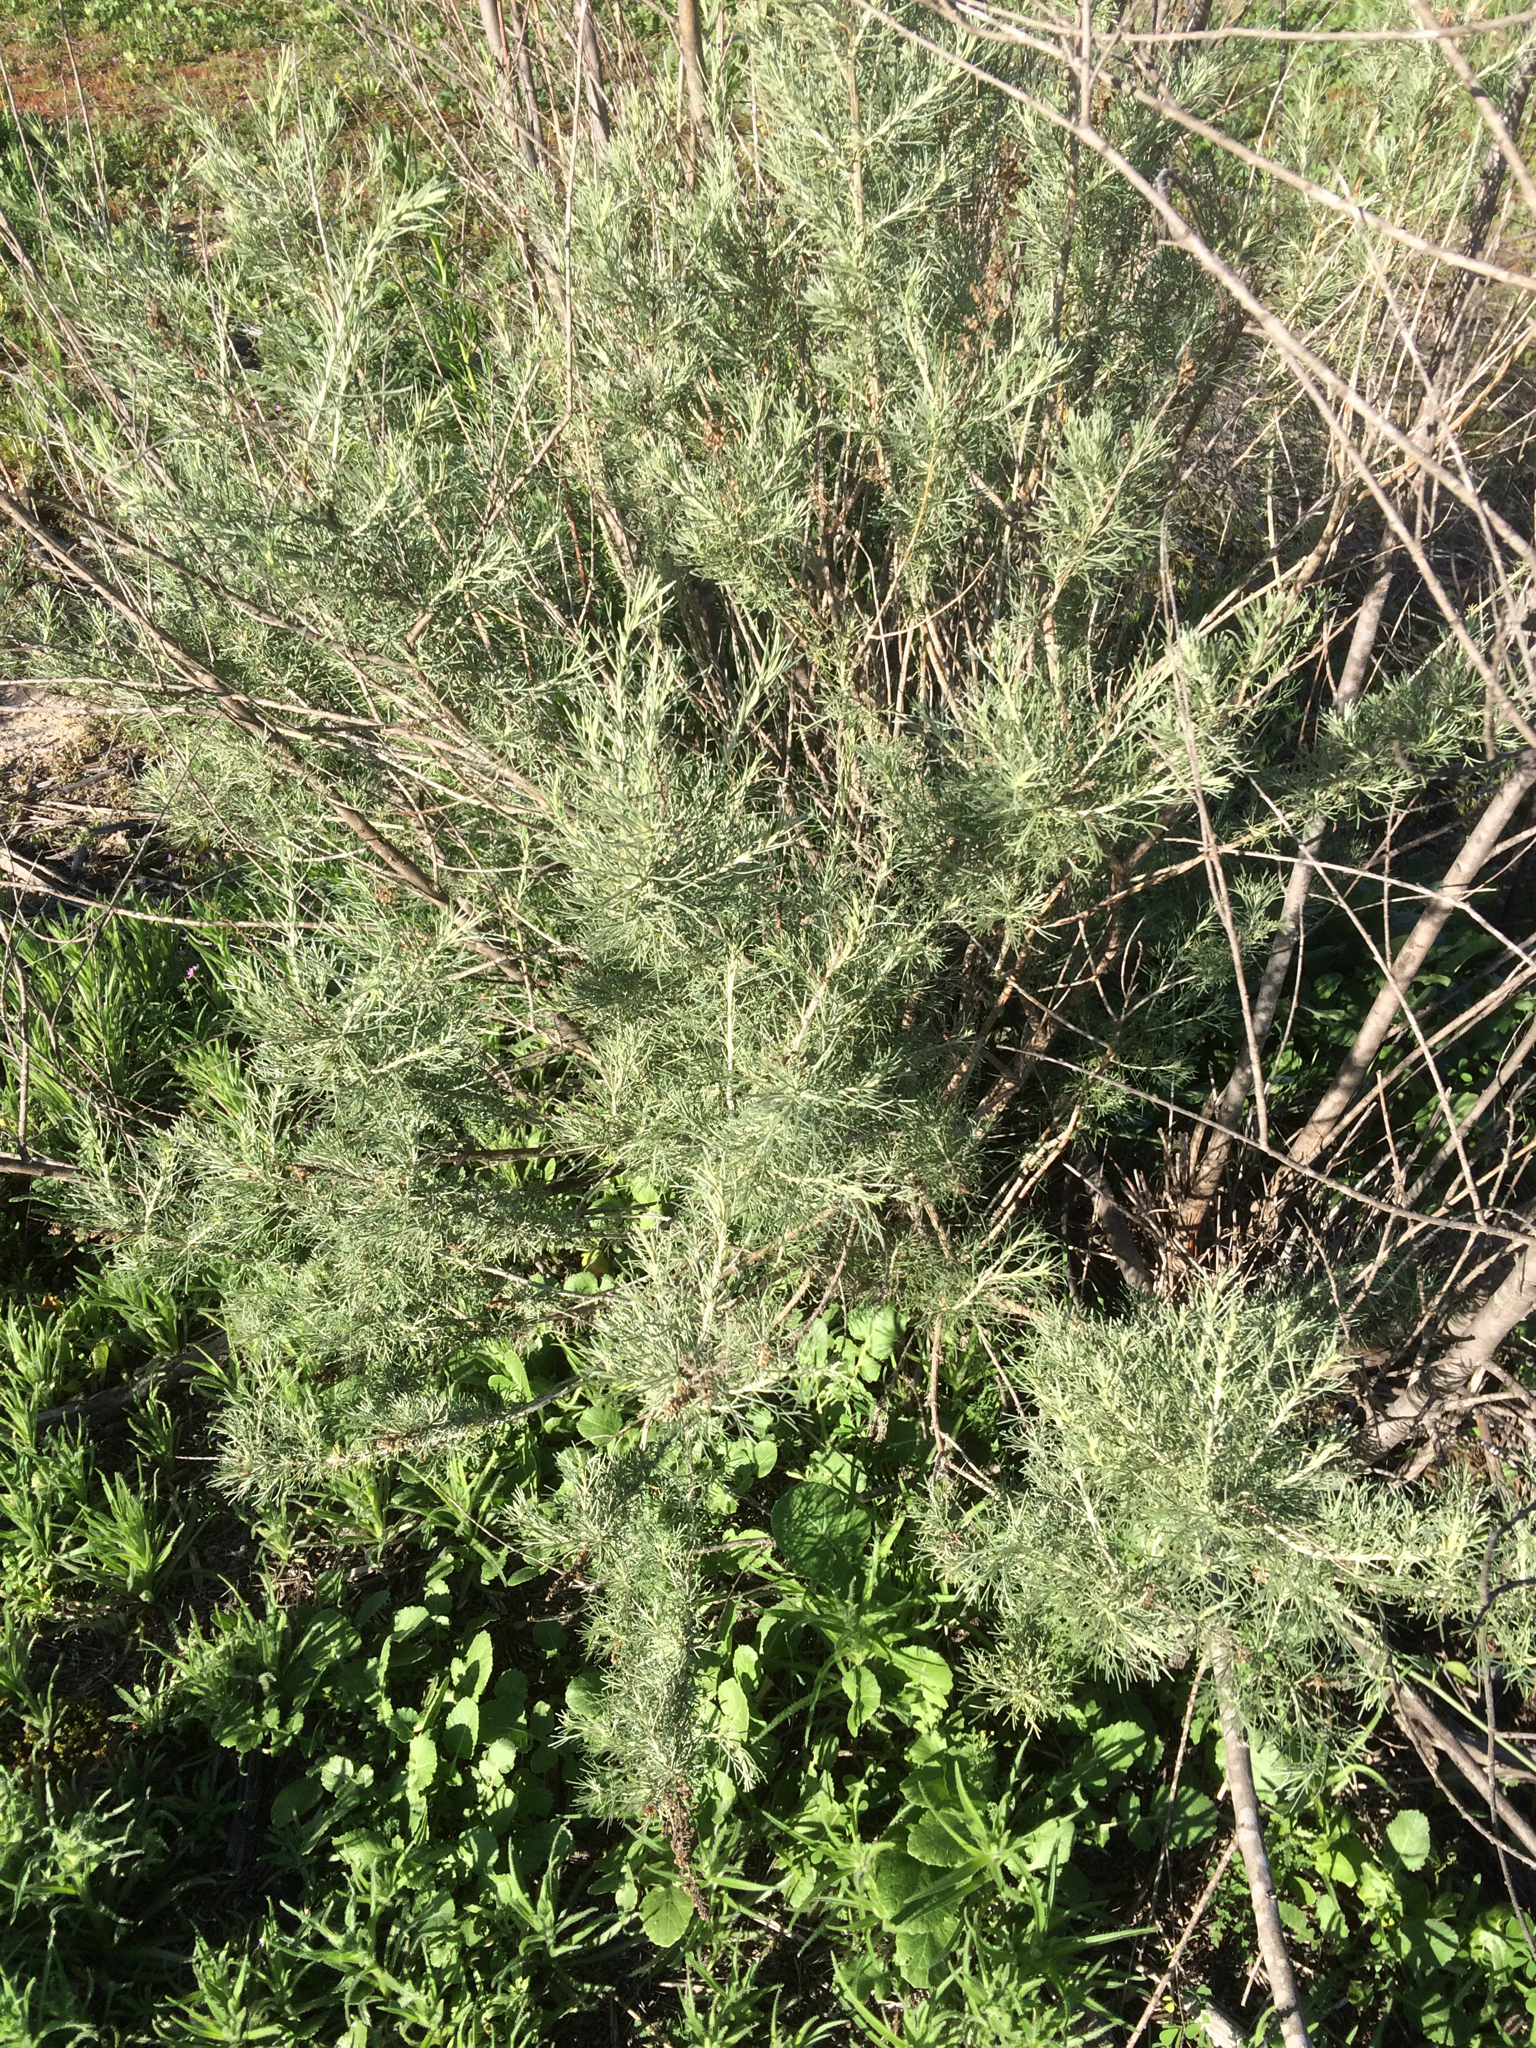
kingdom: Plantae
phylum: Tracheophyta
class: Magnoliopsida
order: Asterales
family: Asteraceae
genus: Artemisia
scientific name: Artemisia californica
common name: California sagebrush
